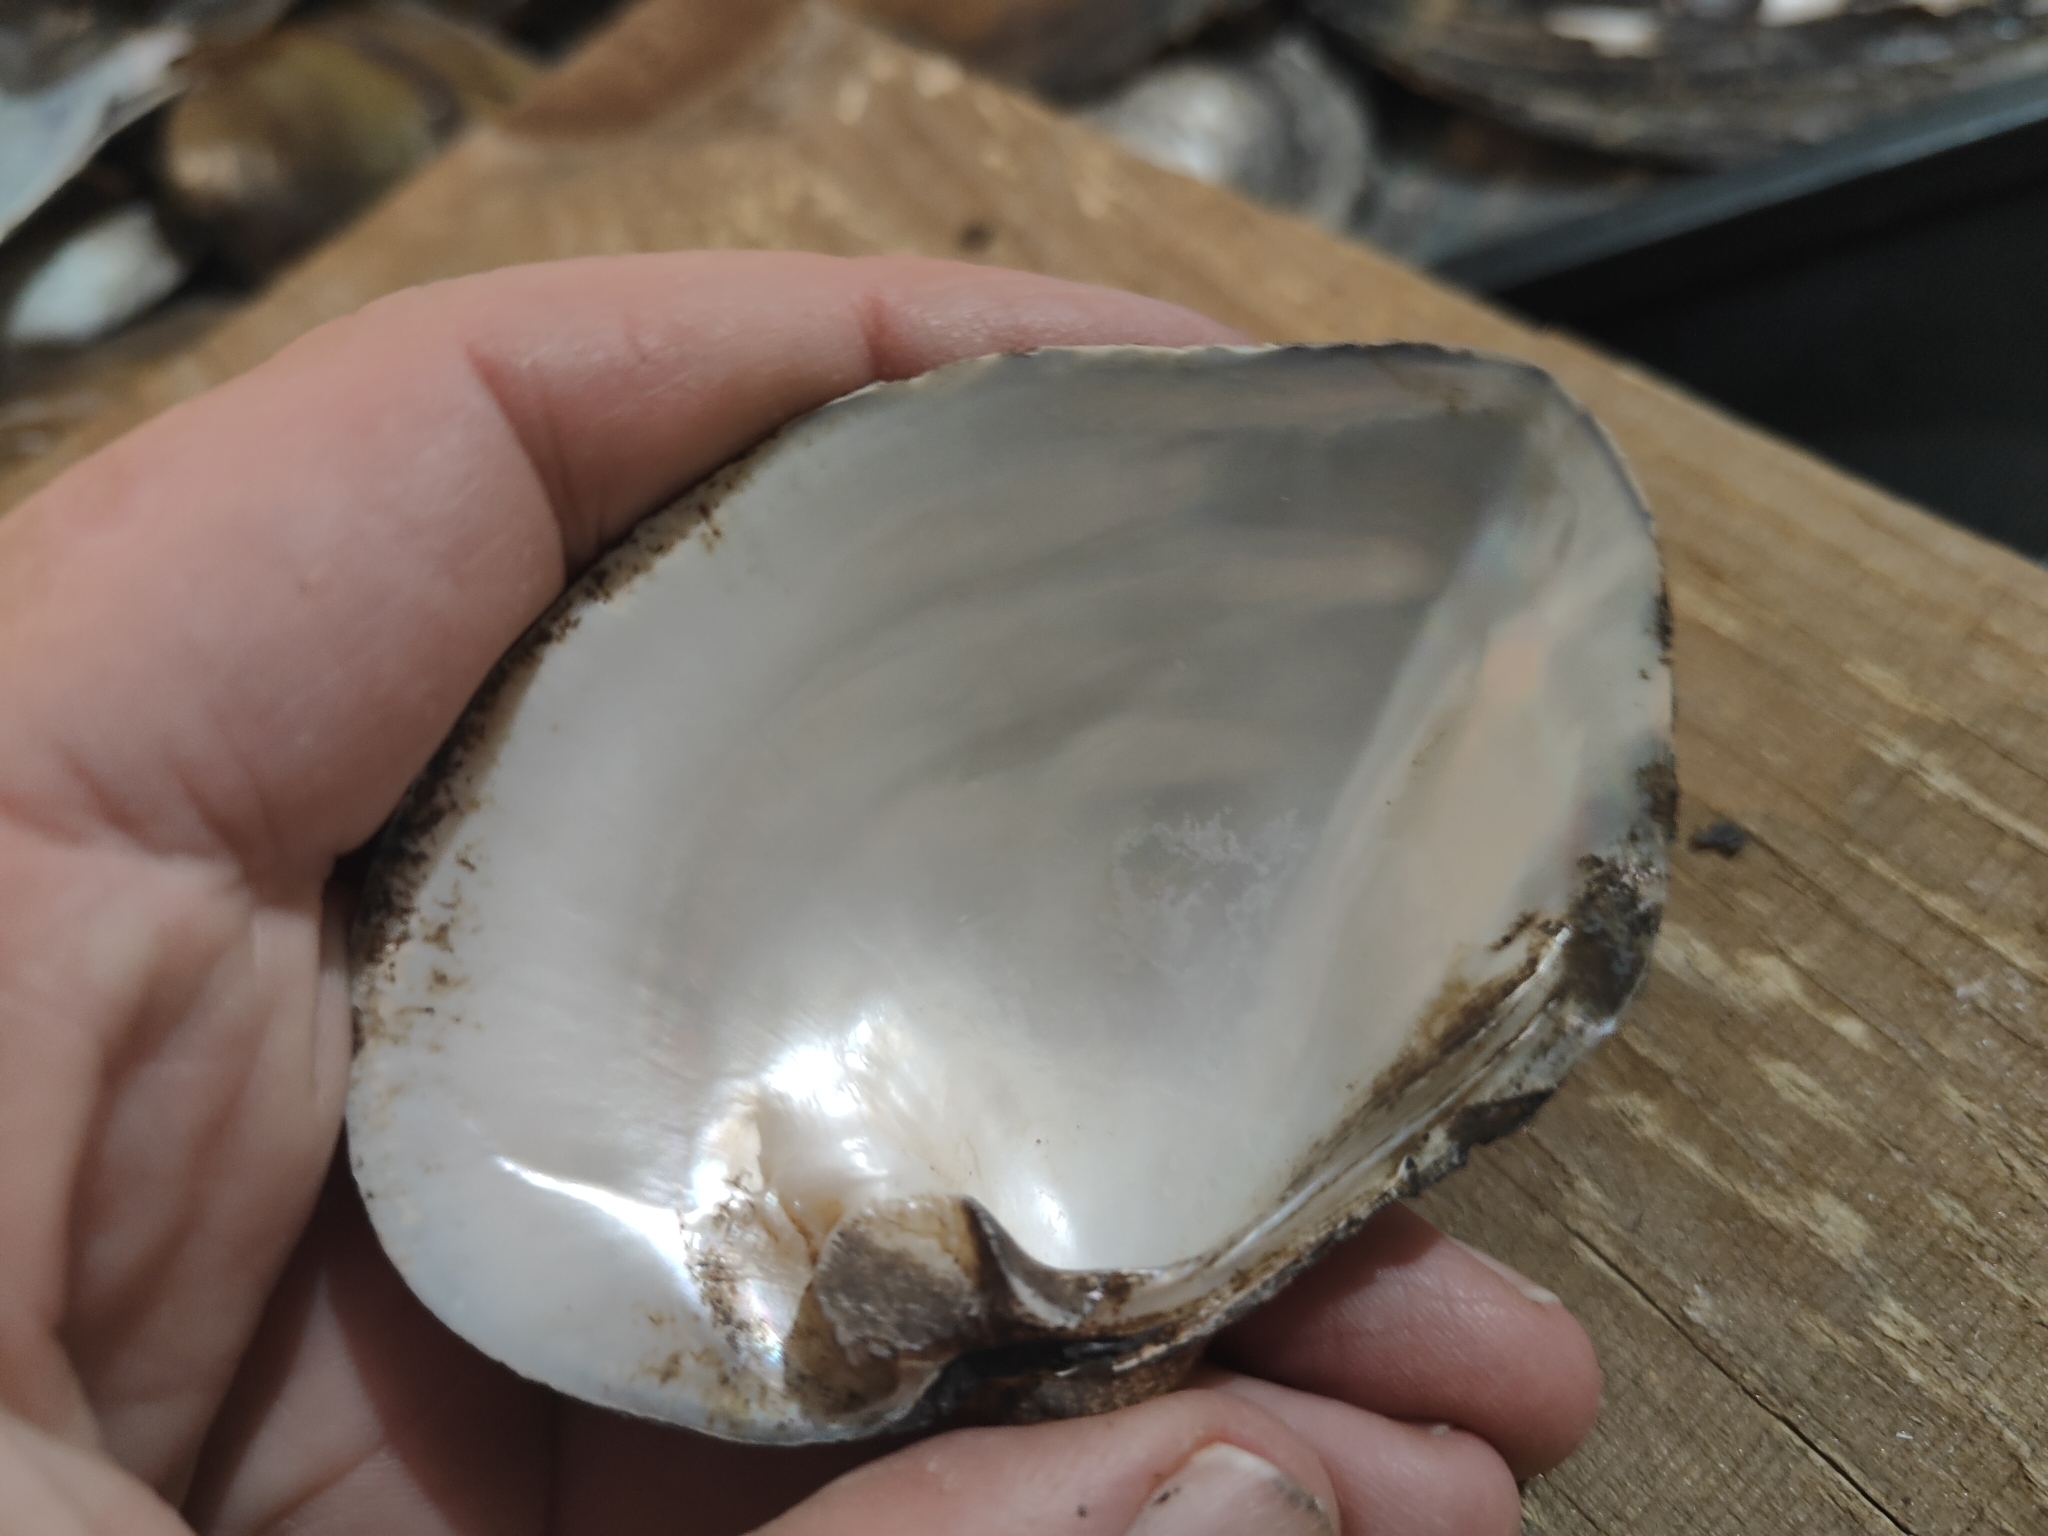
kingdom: Animalia
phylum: Mollusca
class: Bivalvia
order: Unionida
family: Unionidae
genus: Quadrula
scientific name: Quadrula quadrula
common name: Mapleleaf
